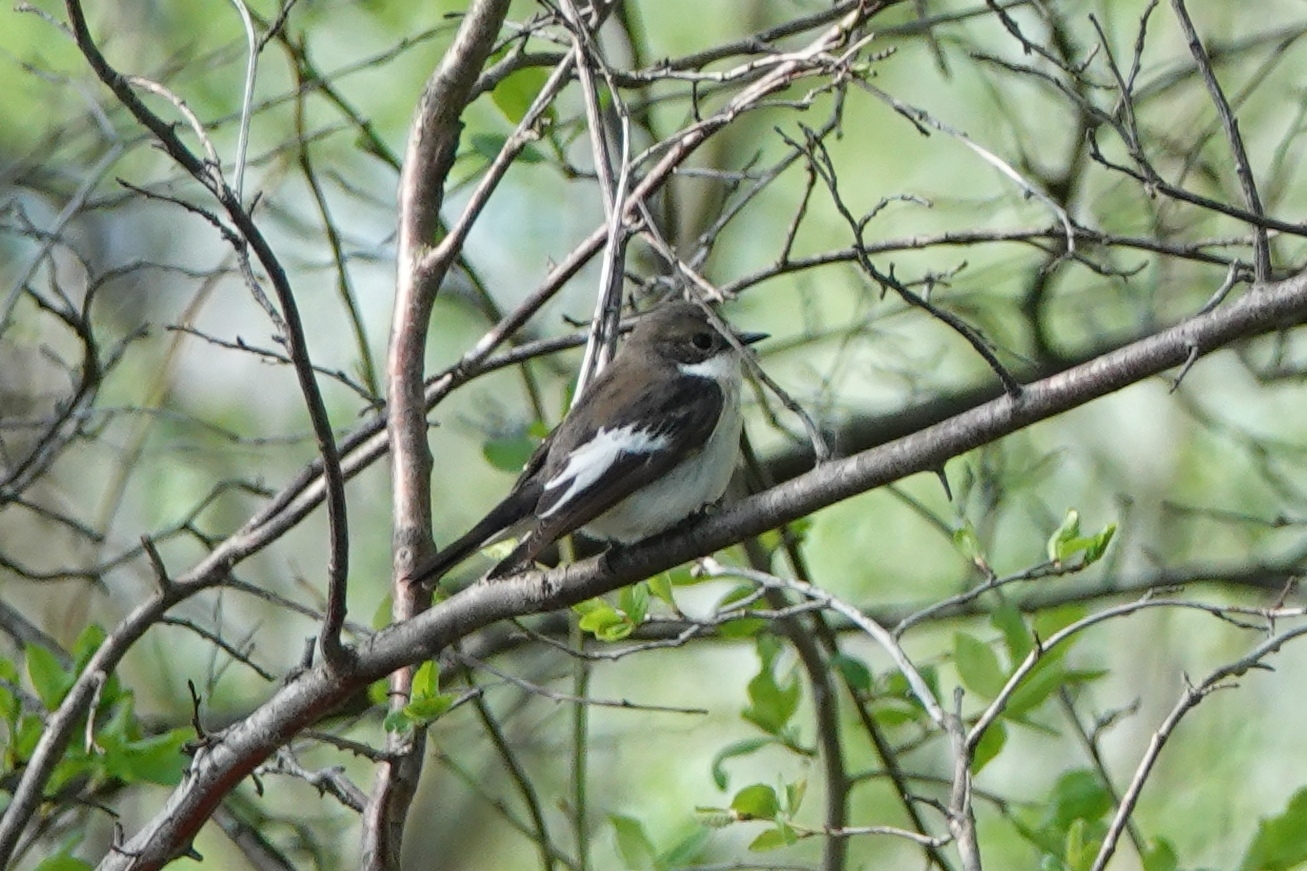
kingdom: Animalia
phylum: Chordata
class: Aves
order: Passeriformes
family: Muscicapidae
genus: Ficedula
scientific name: Ficedula hypoleuca
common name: European pied flycatcher
